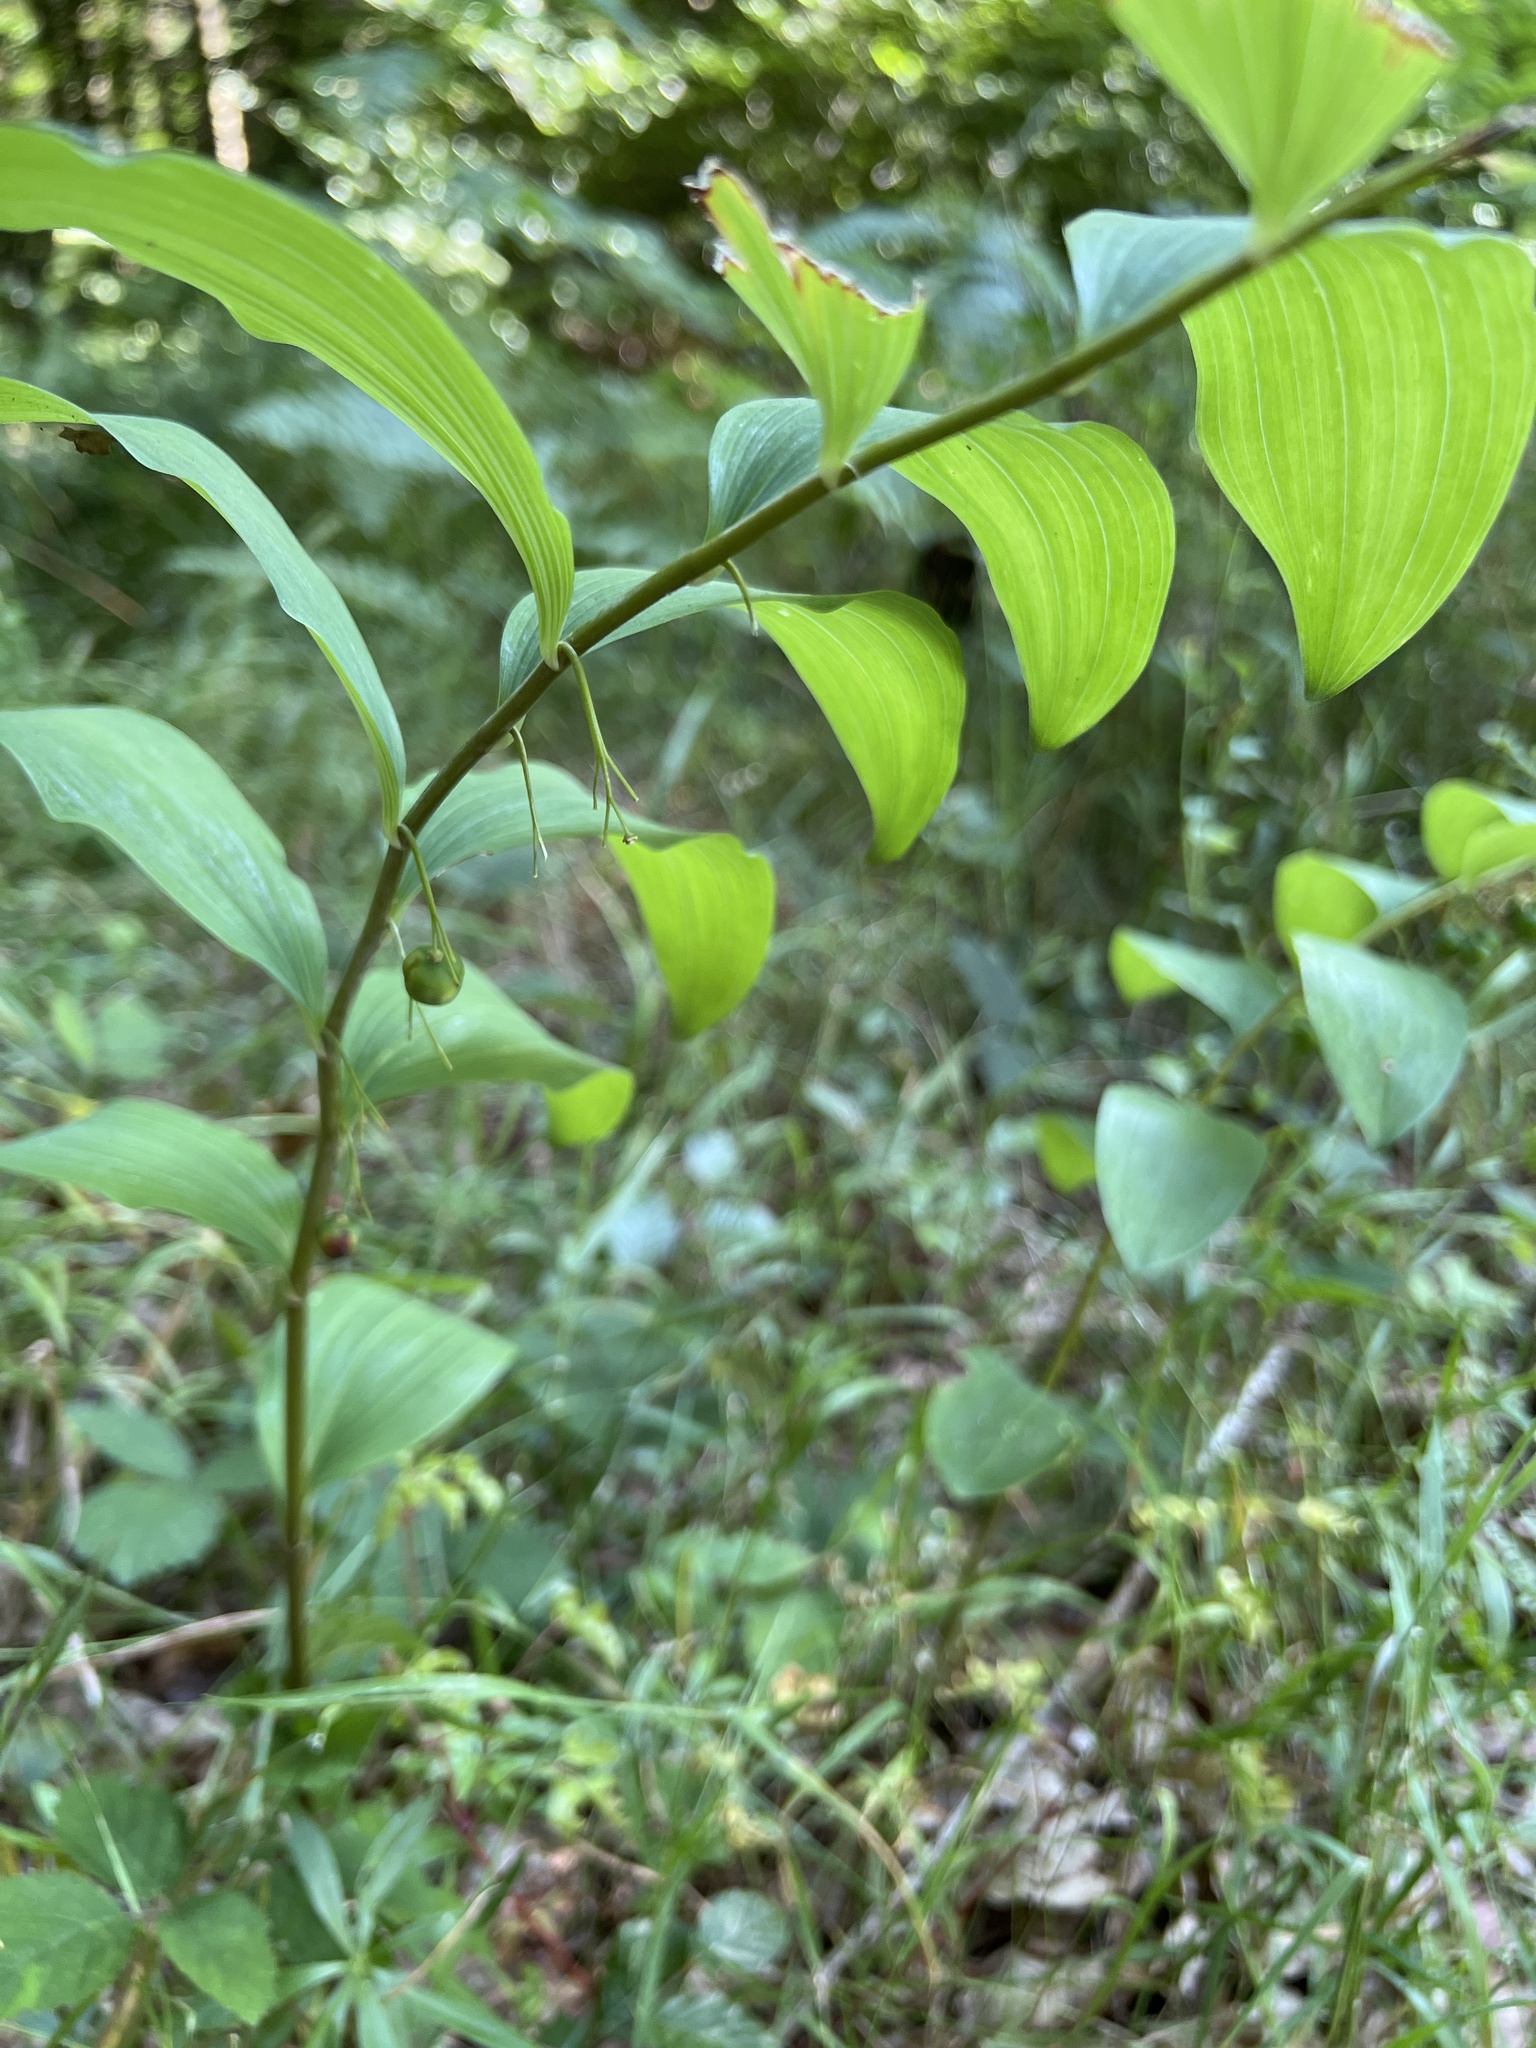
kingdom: Plantae
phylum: Tracheophyta
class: Liliopsida
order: Asparagales
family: Asparagaceae
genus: Polygonatum
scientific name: Polygonatum multiflorum
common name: Solomon's-seal
